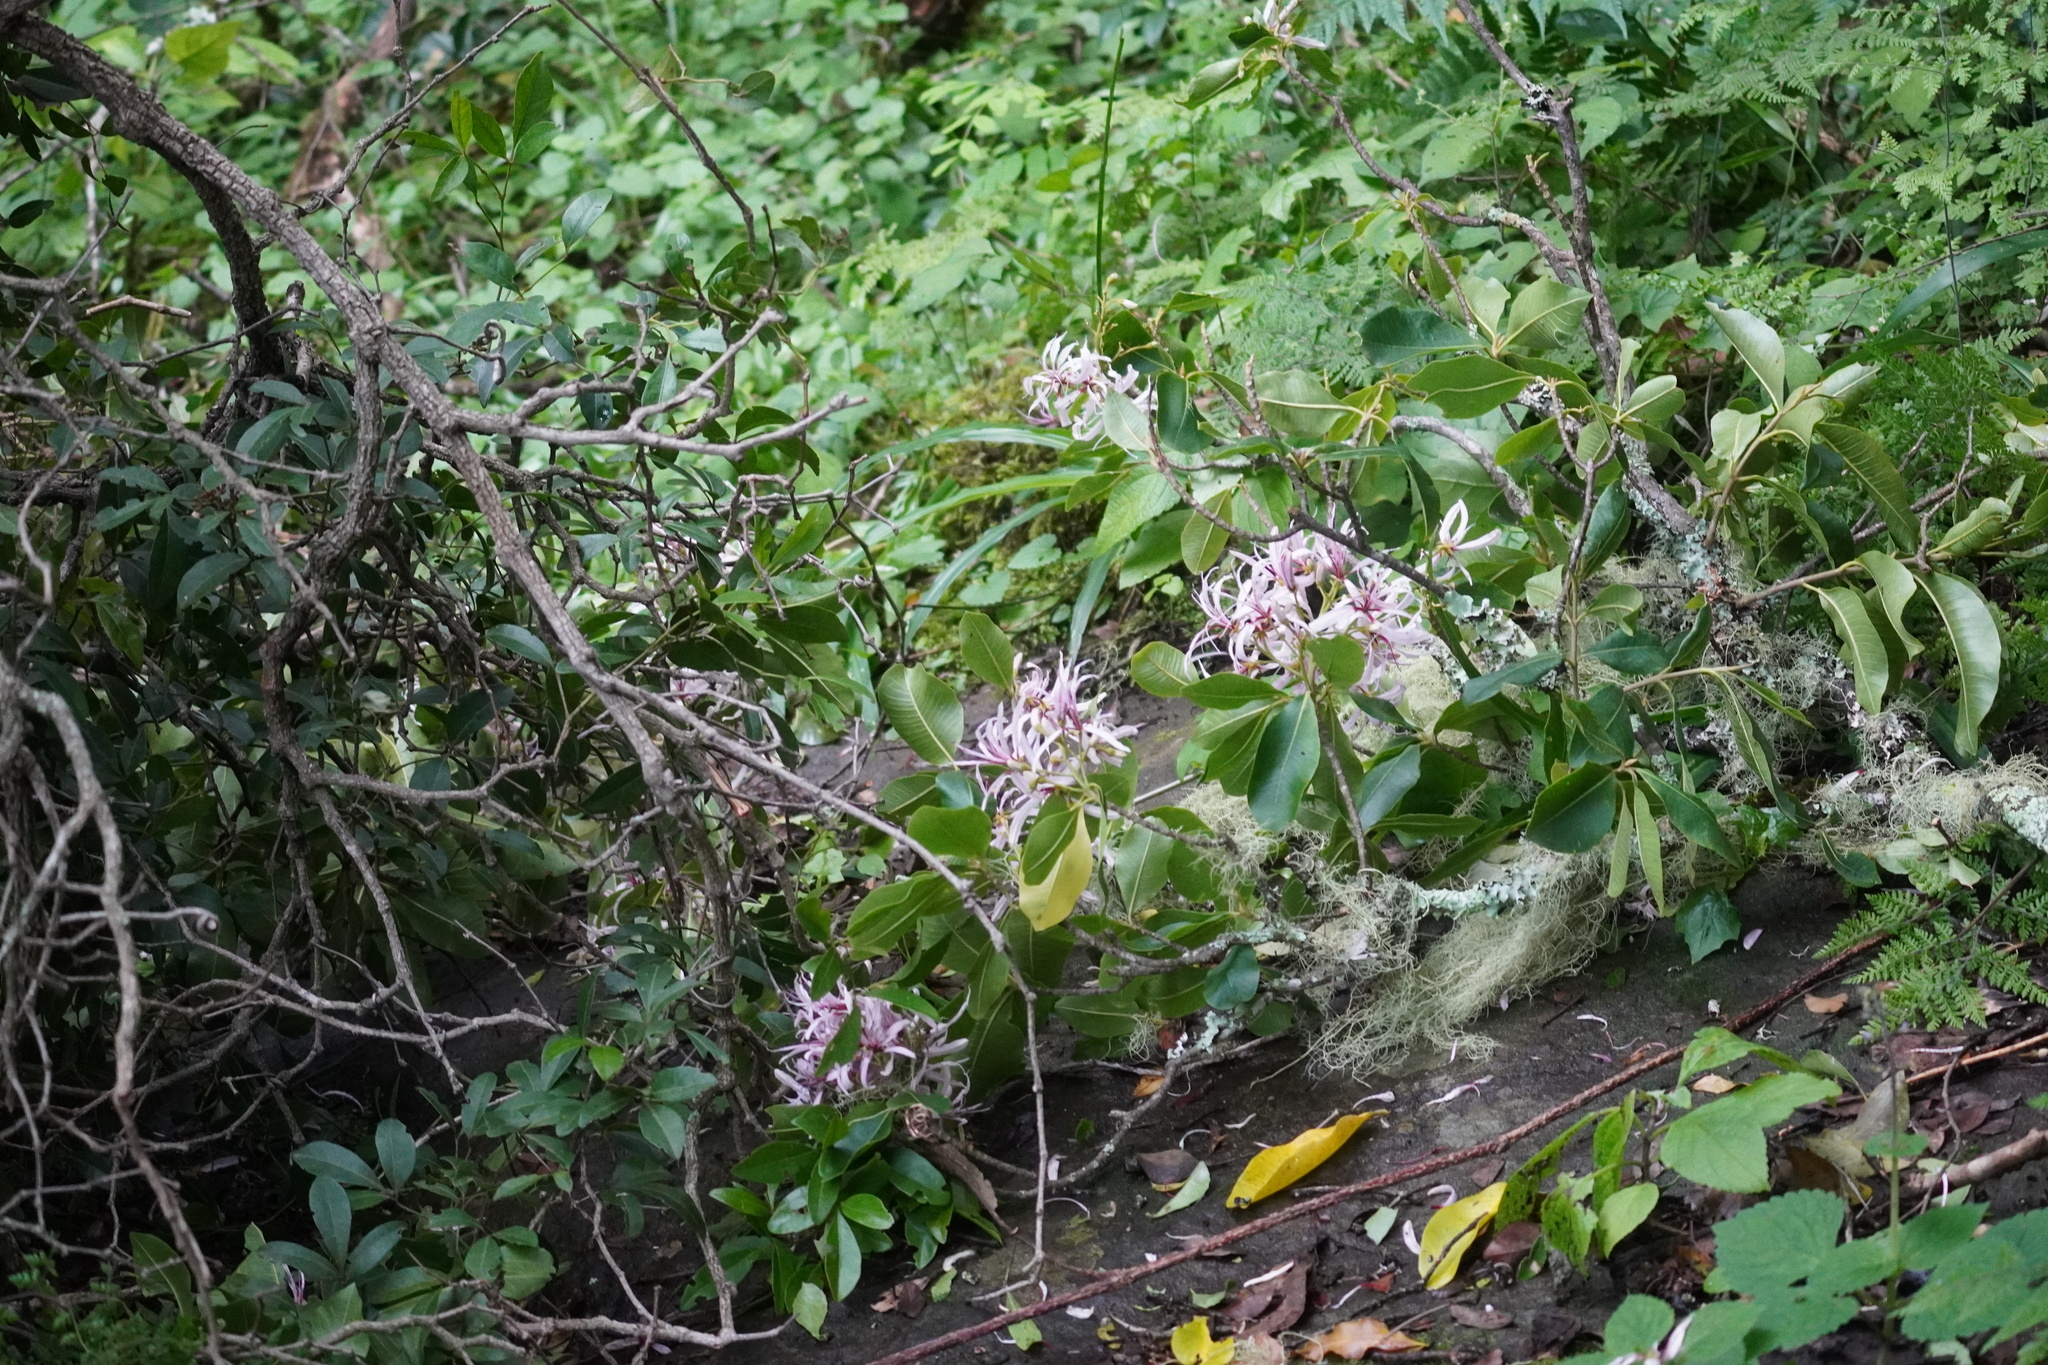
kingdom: Plantae
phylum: Tracheophyta
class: Magnoliopsida
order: Sapindales
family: Rutaceae
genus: Calodendrum
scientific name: Calodendrum capense
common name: Cape chestnut
